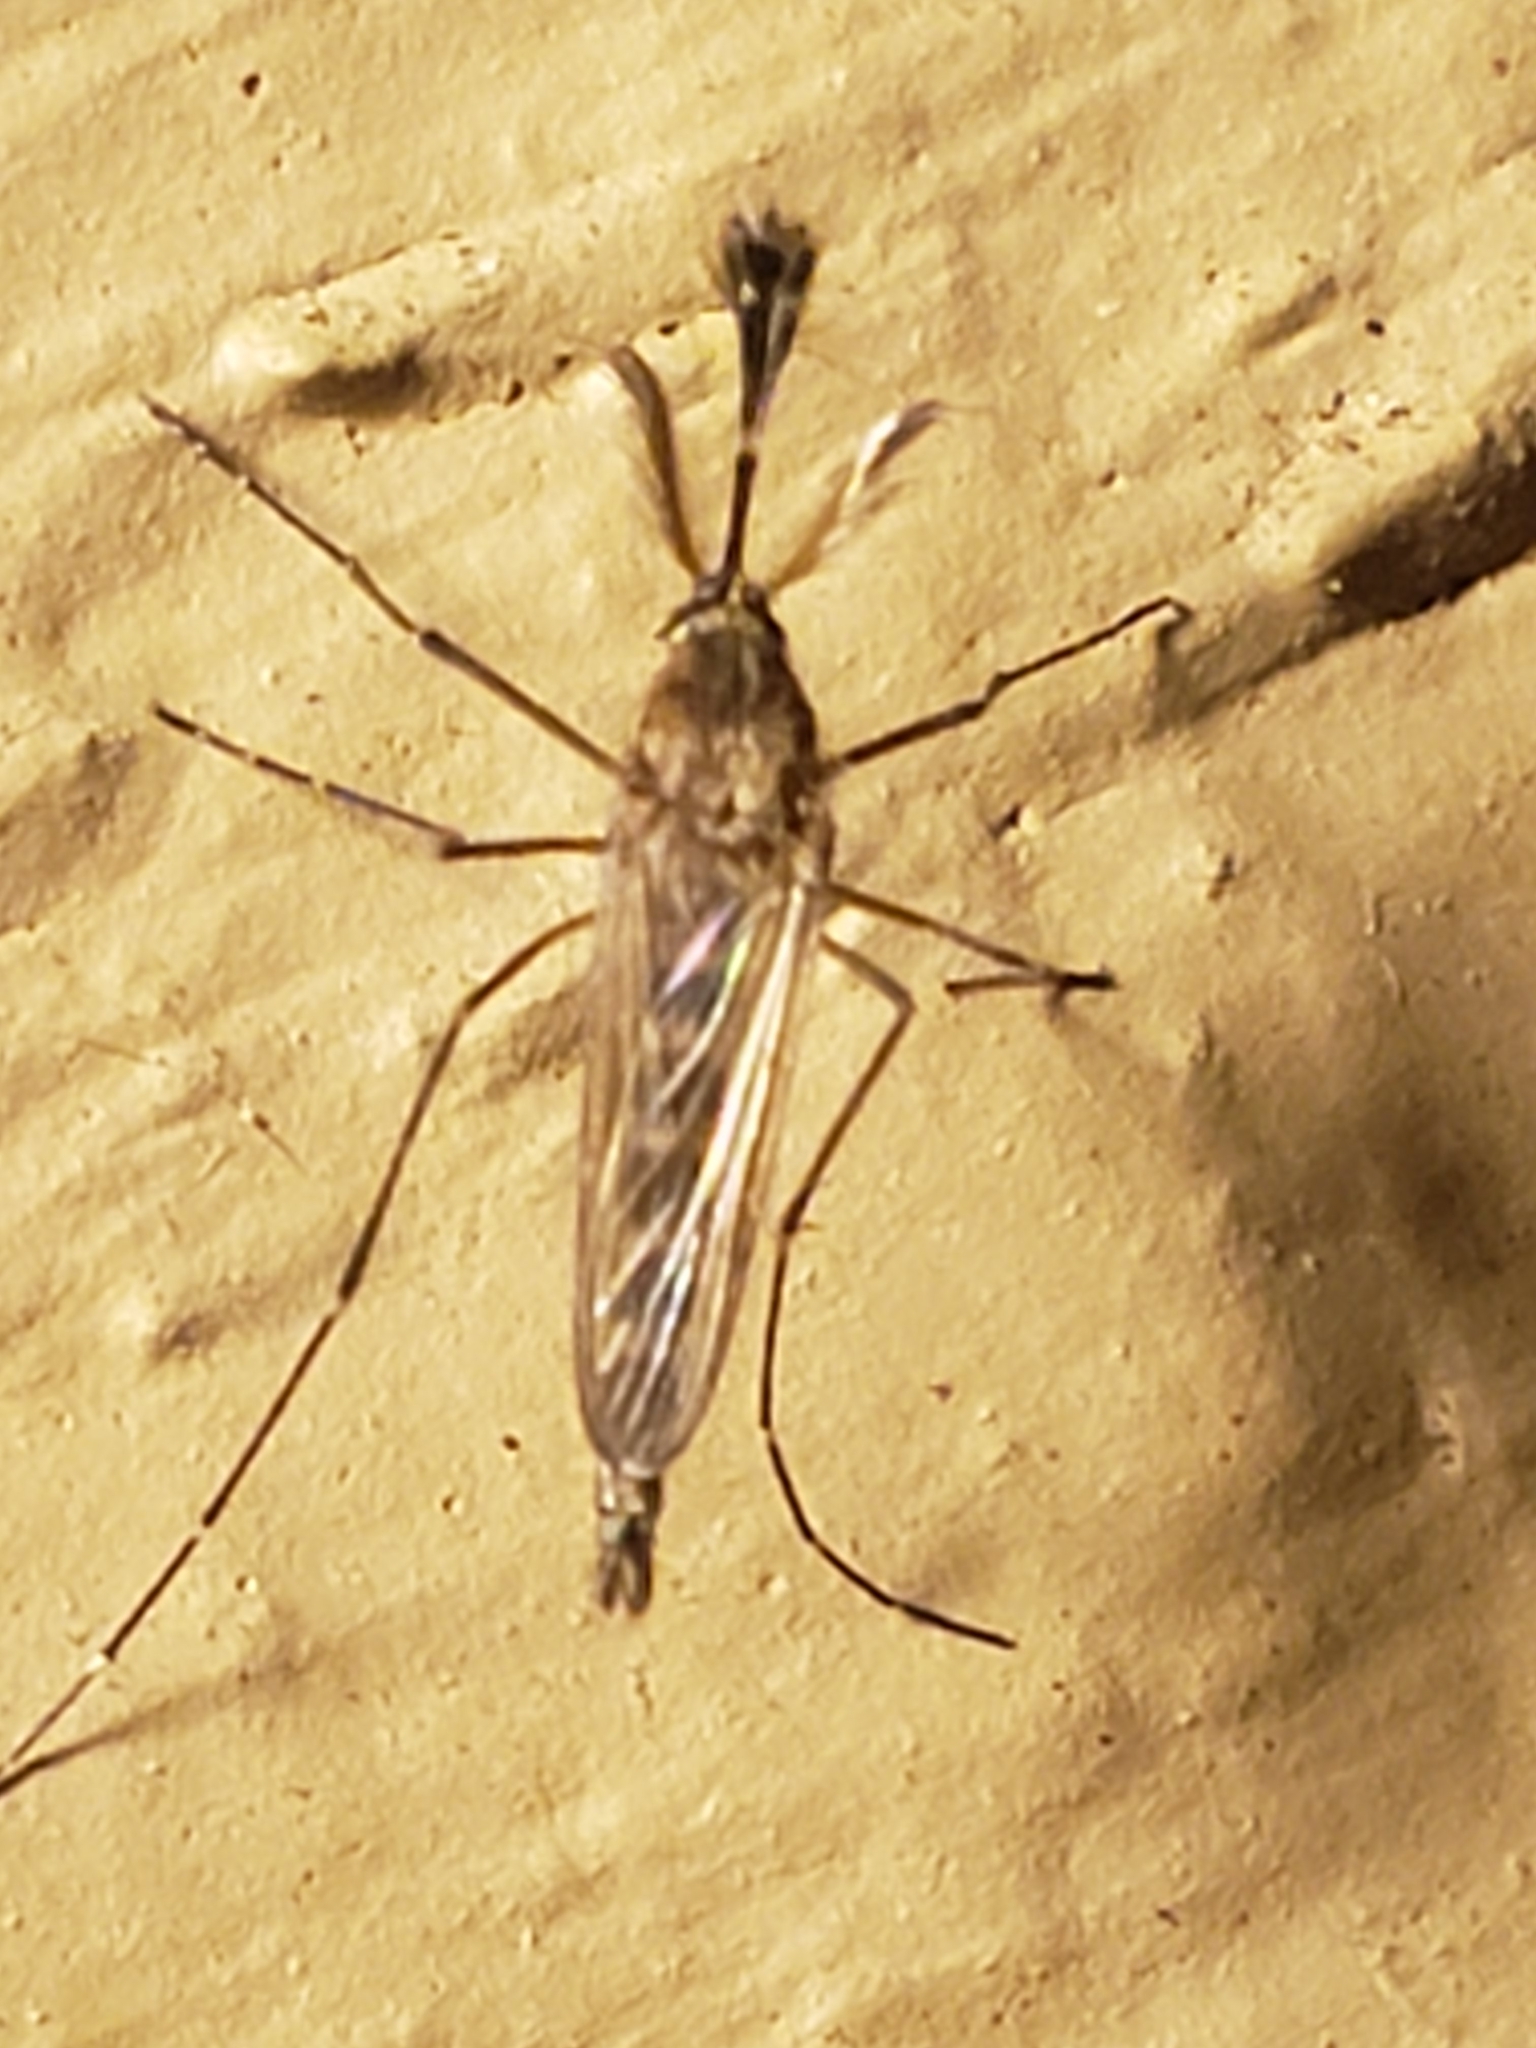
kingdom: Animalia
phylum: Arthropoda
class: Insecta
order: Diptera
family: Culicidae
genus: Aedes
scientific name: Aedes vexans
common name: Inland floodwater mosquito
